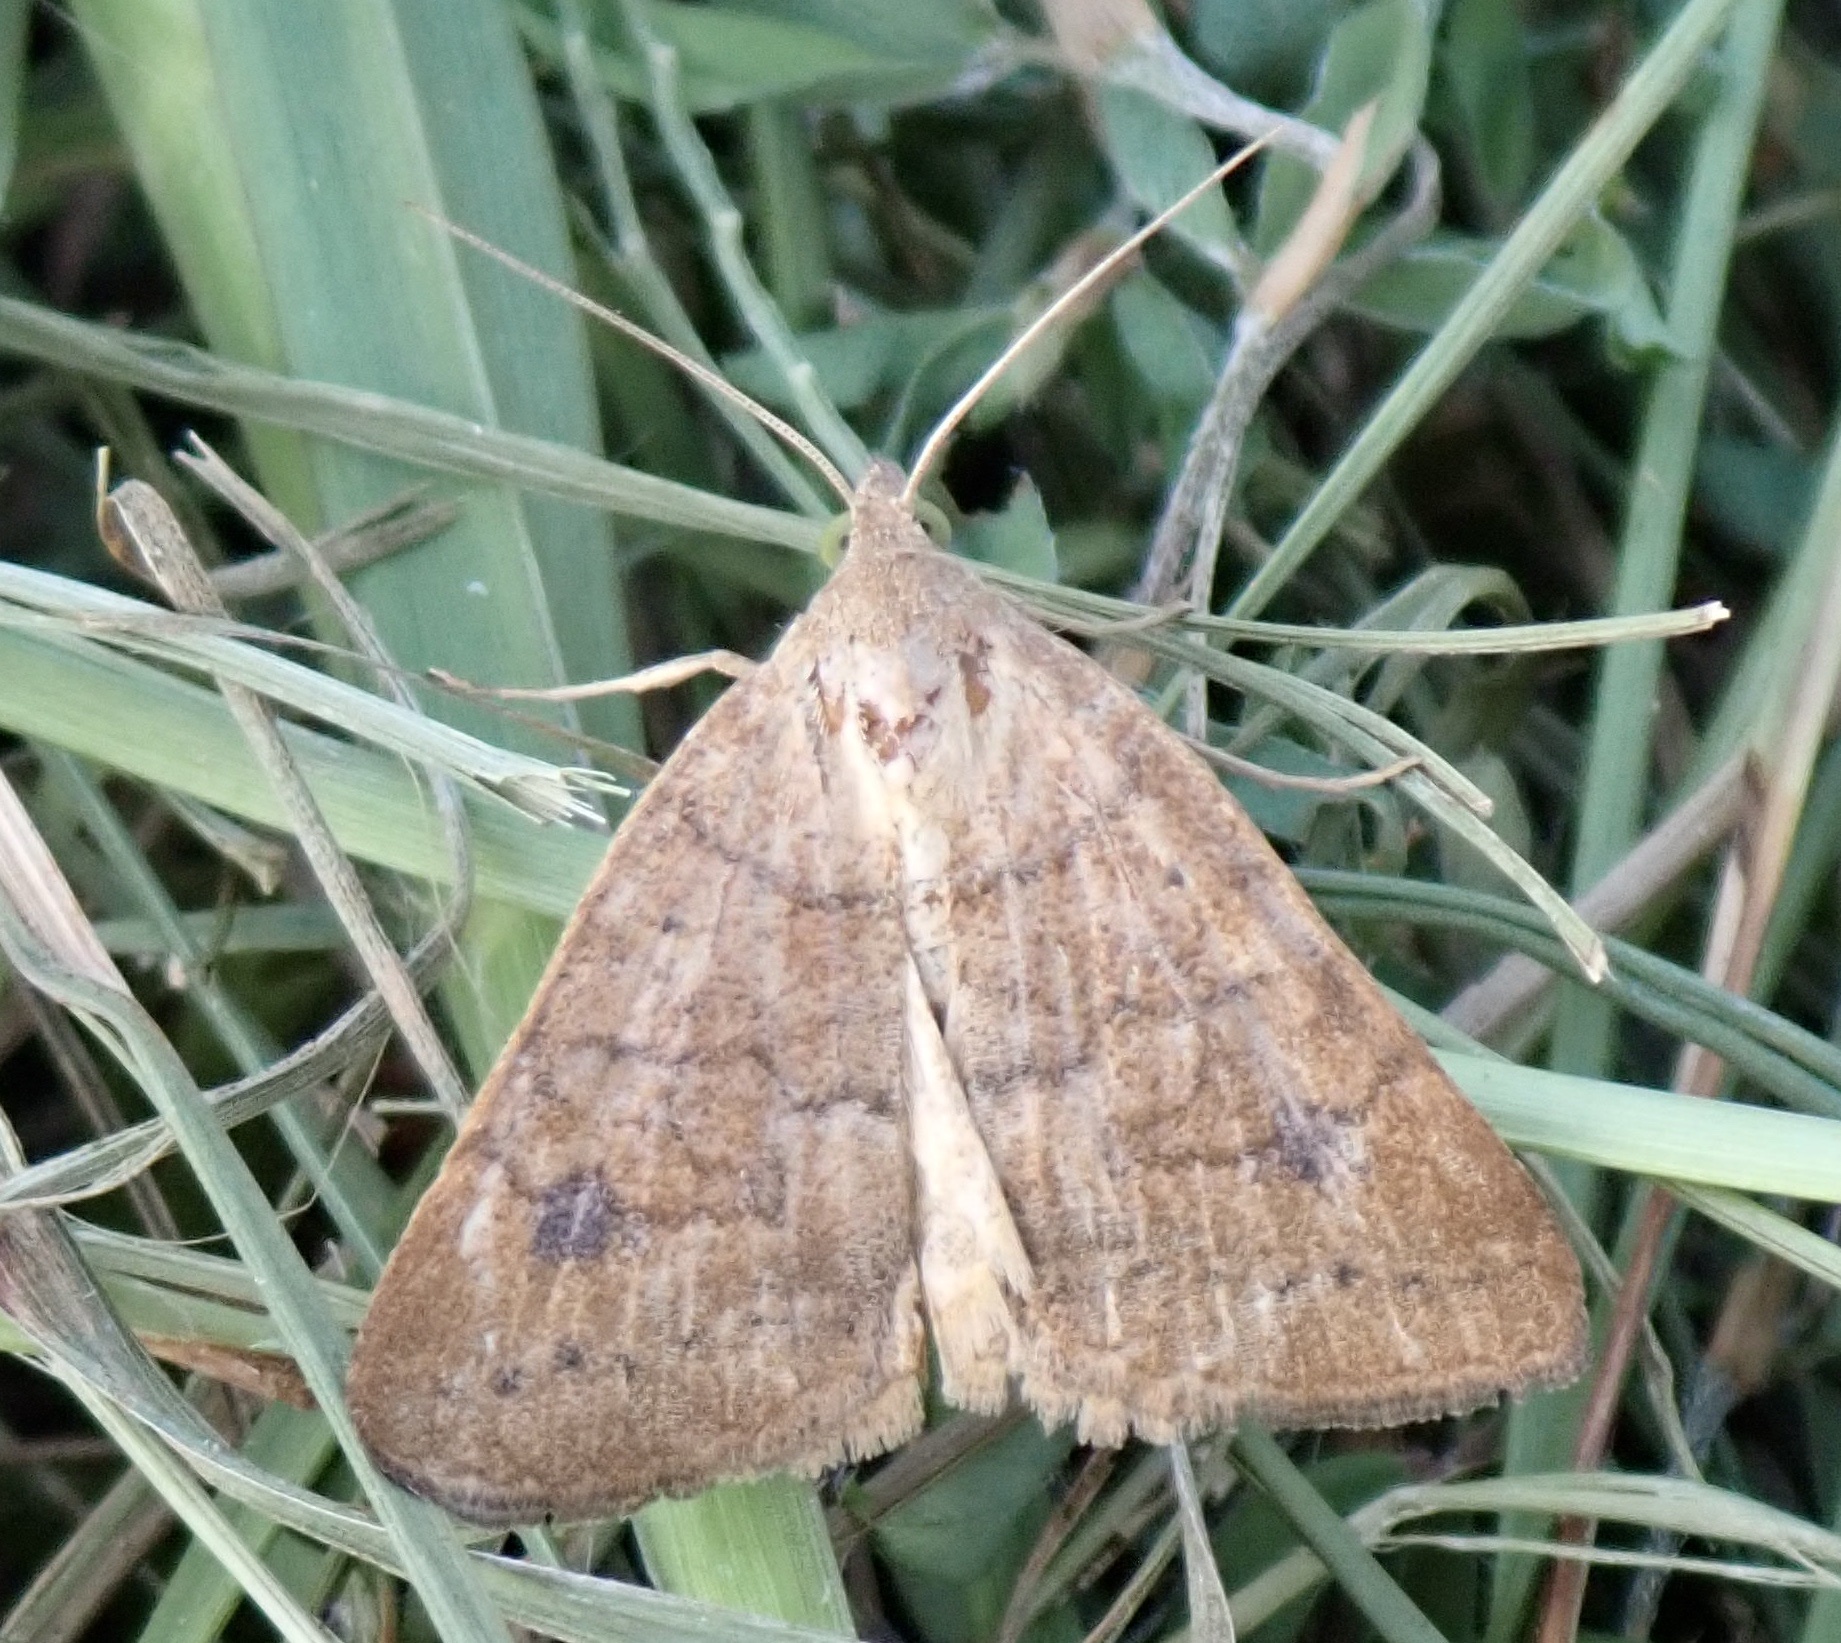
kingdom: Animalia
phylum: Arthropoda
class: Insecta
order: Lepidoptera
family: Erebidae
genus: Caenurgia
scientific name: Caenurgia chloropha
